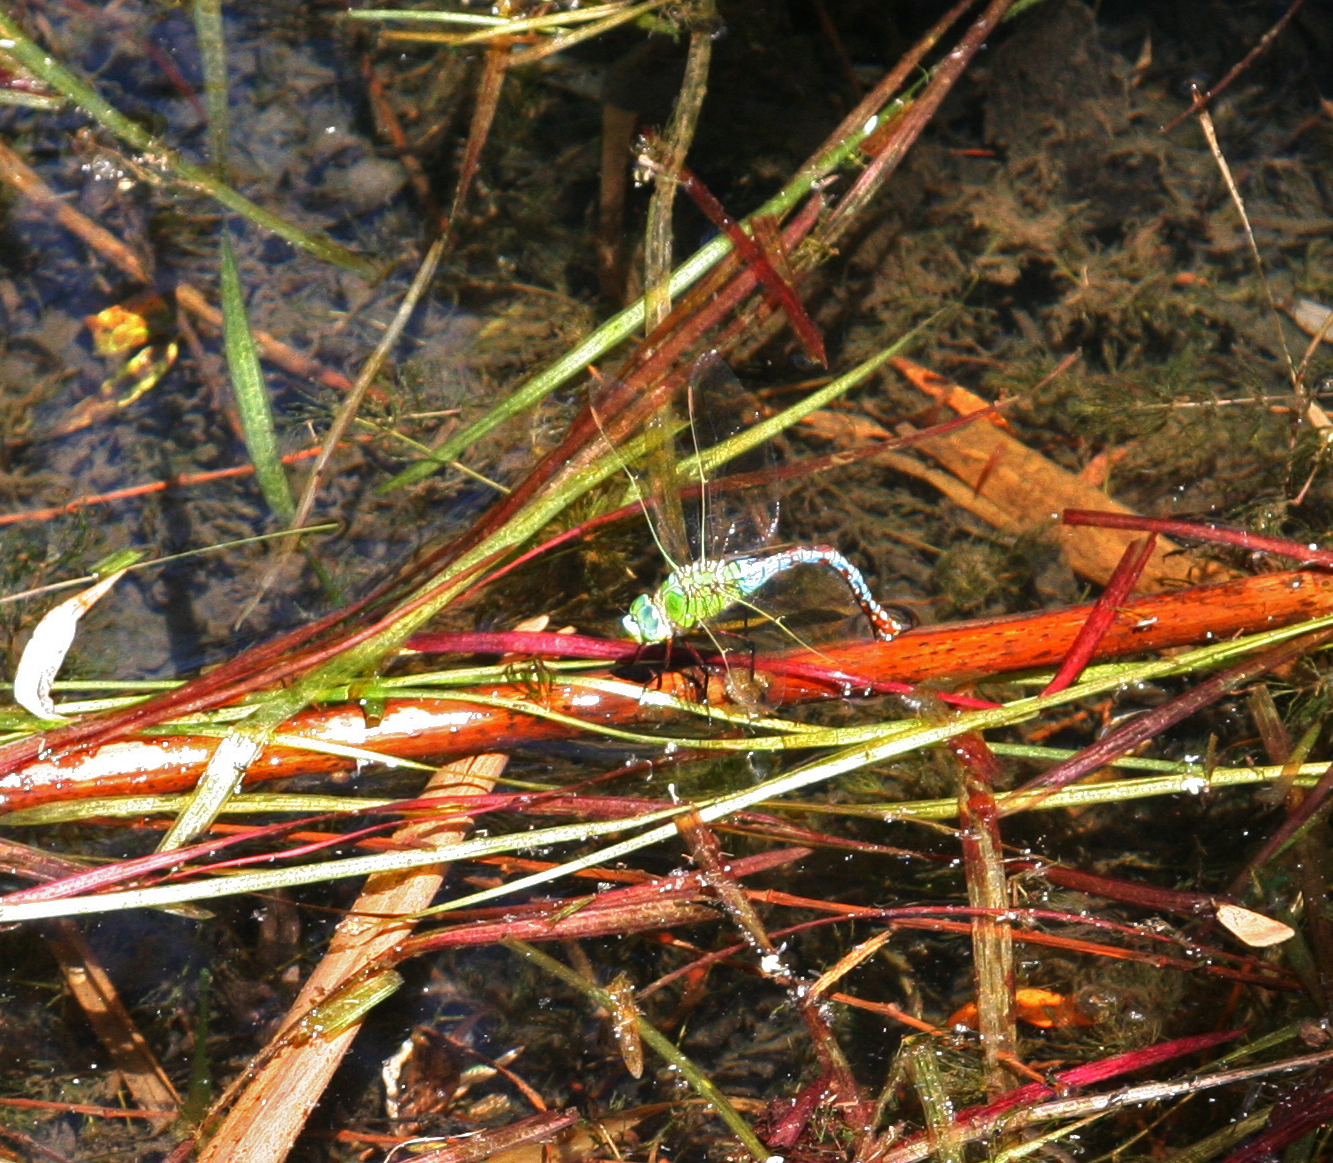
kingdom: Animalia
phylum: Arthropoda
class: Insecta
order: Odonata
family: Aeshnidae
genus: Anax
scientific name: Anax imperator
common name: Emperor dragonfly
